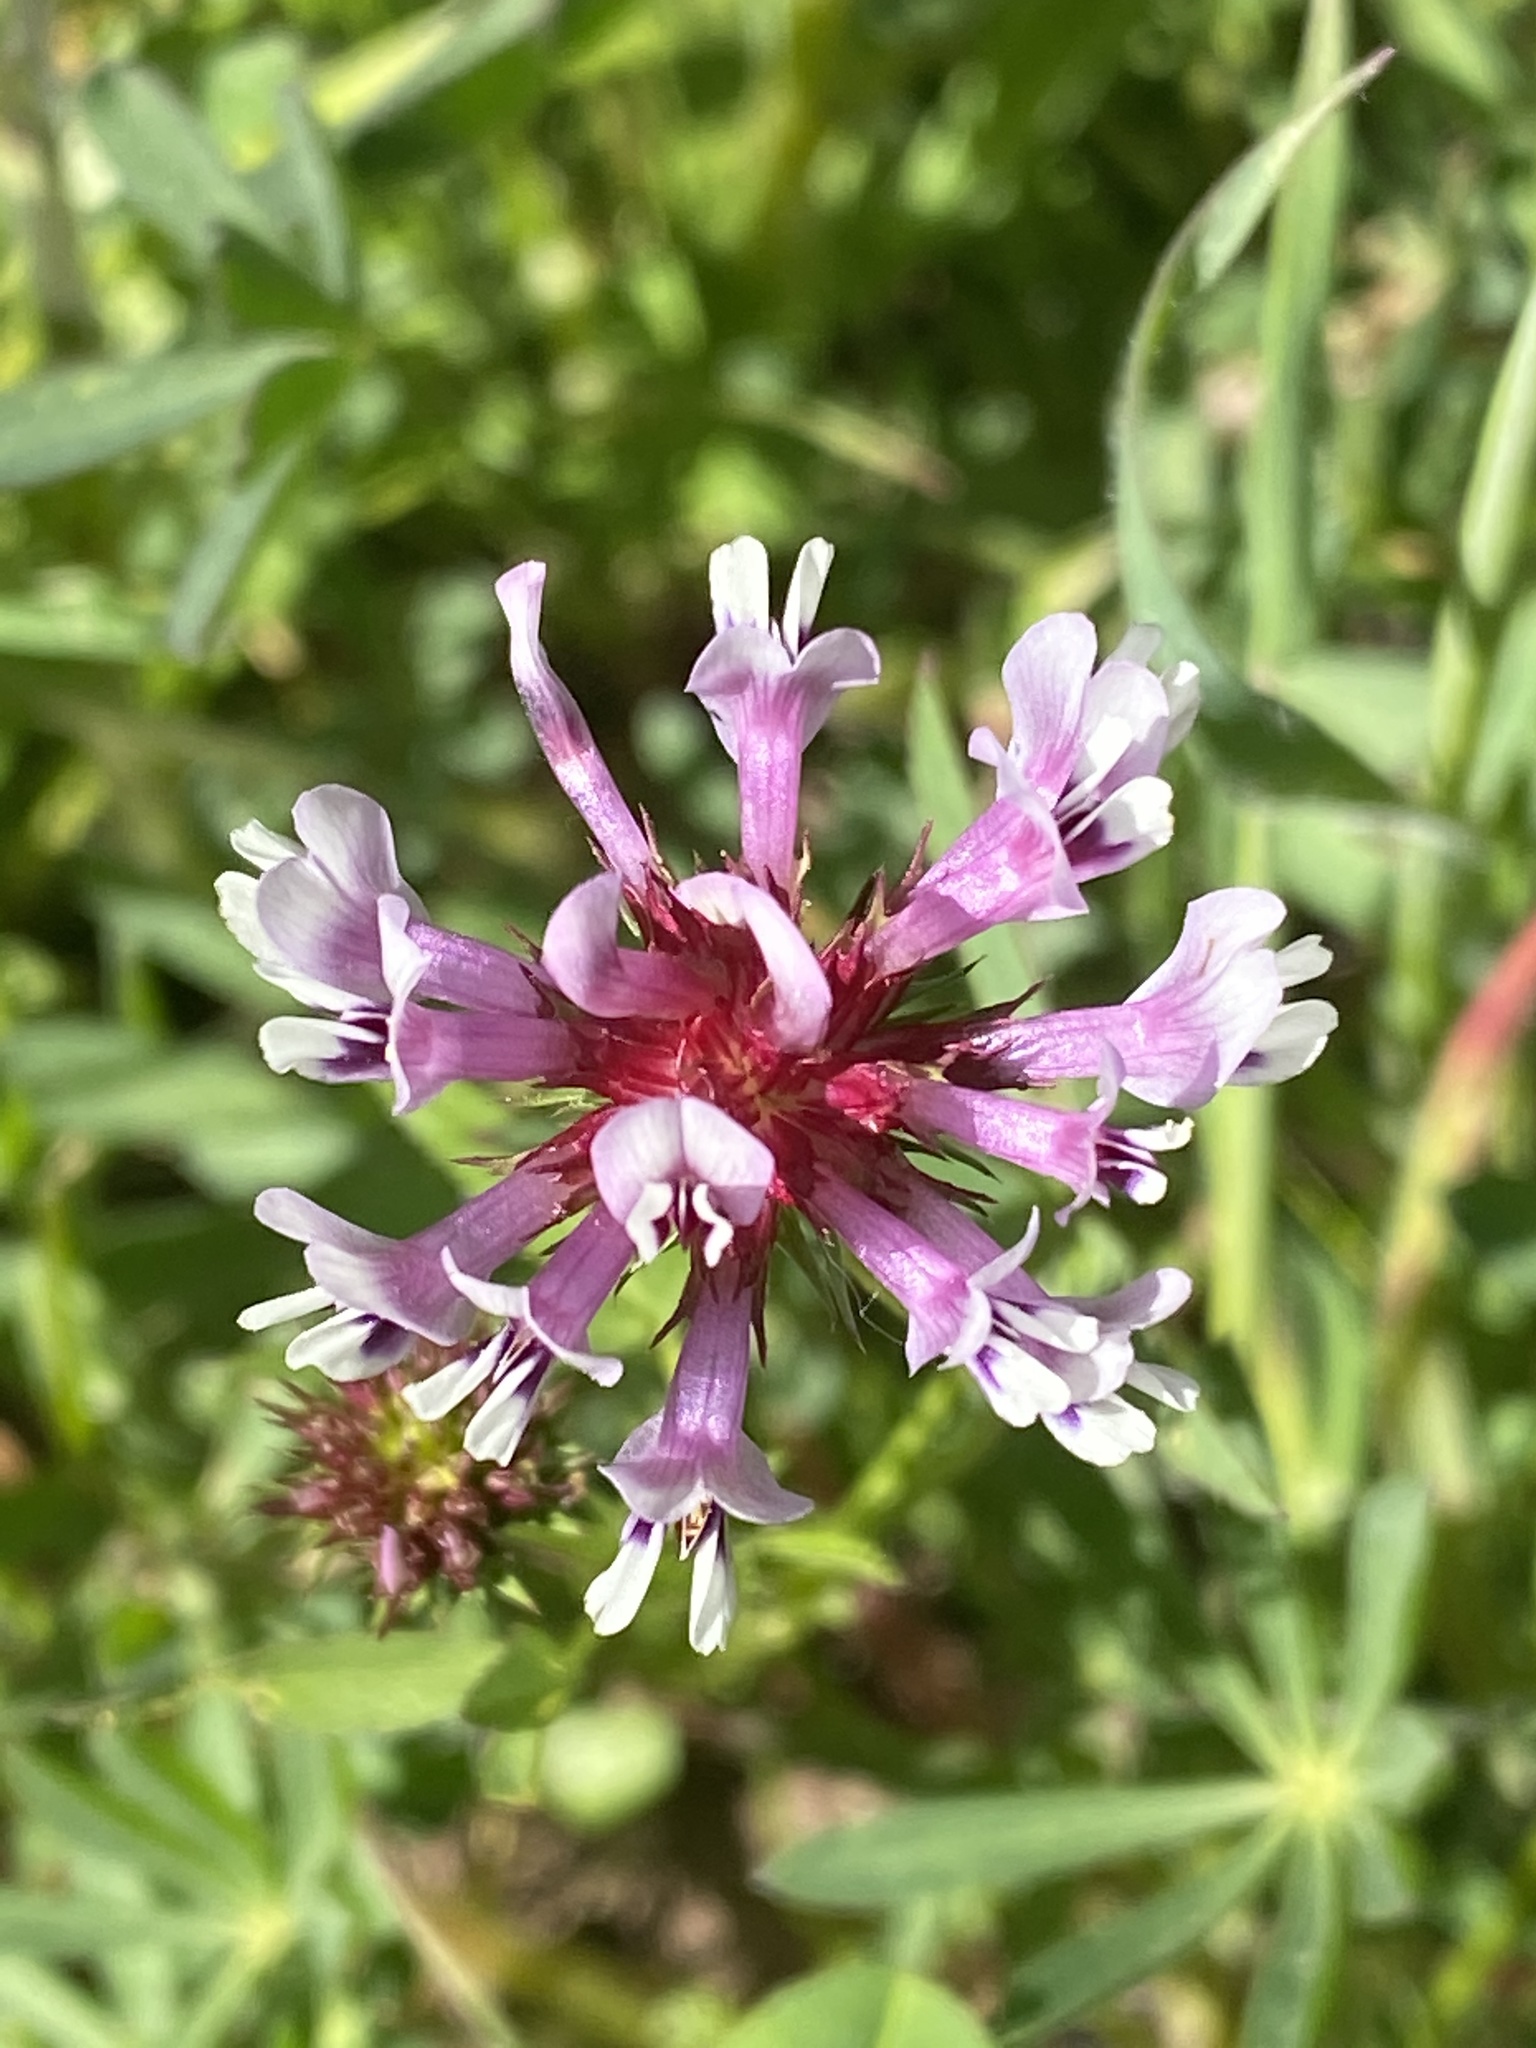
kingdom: Plantae
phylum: Tracheophyta
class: Magnoliopsida
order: Fabales
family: Fabaceae
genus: Trifolium
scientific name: Trifolium willdenovii
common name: Tomcat clover
